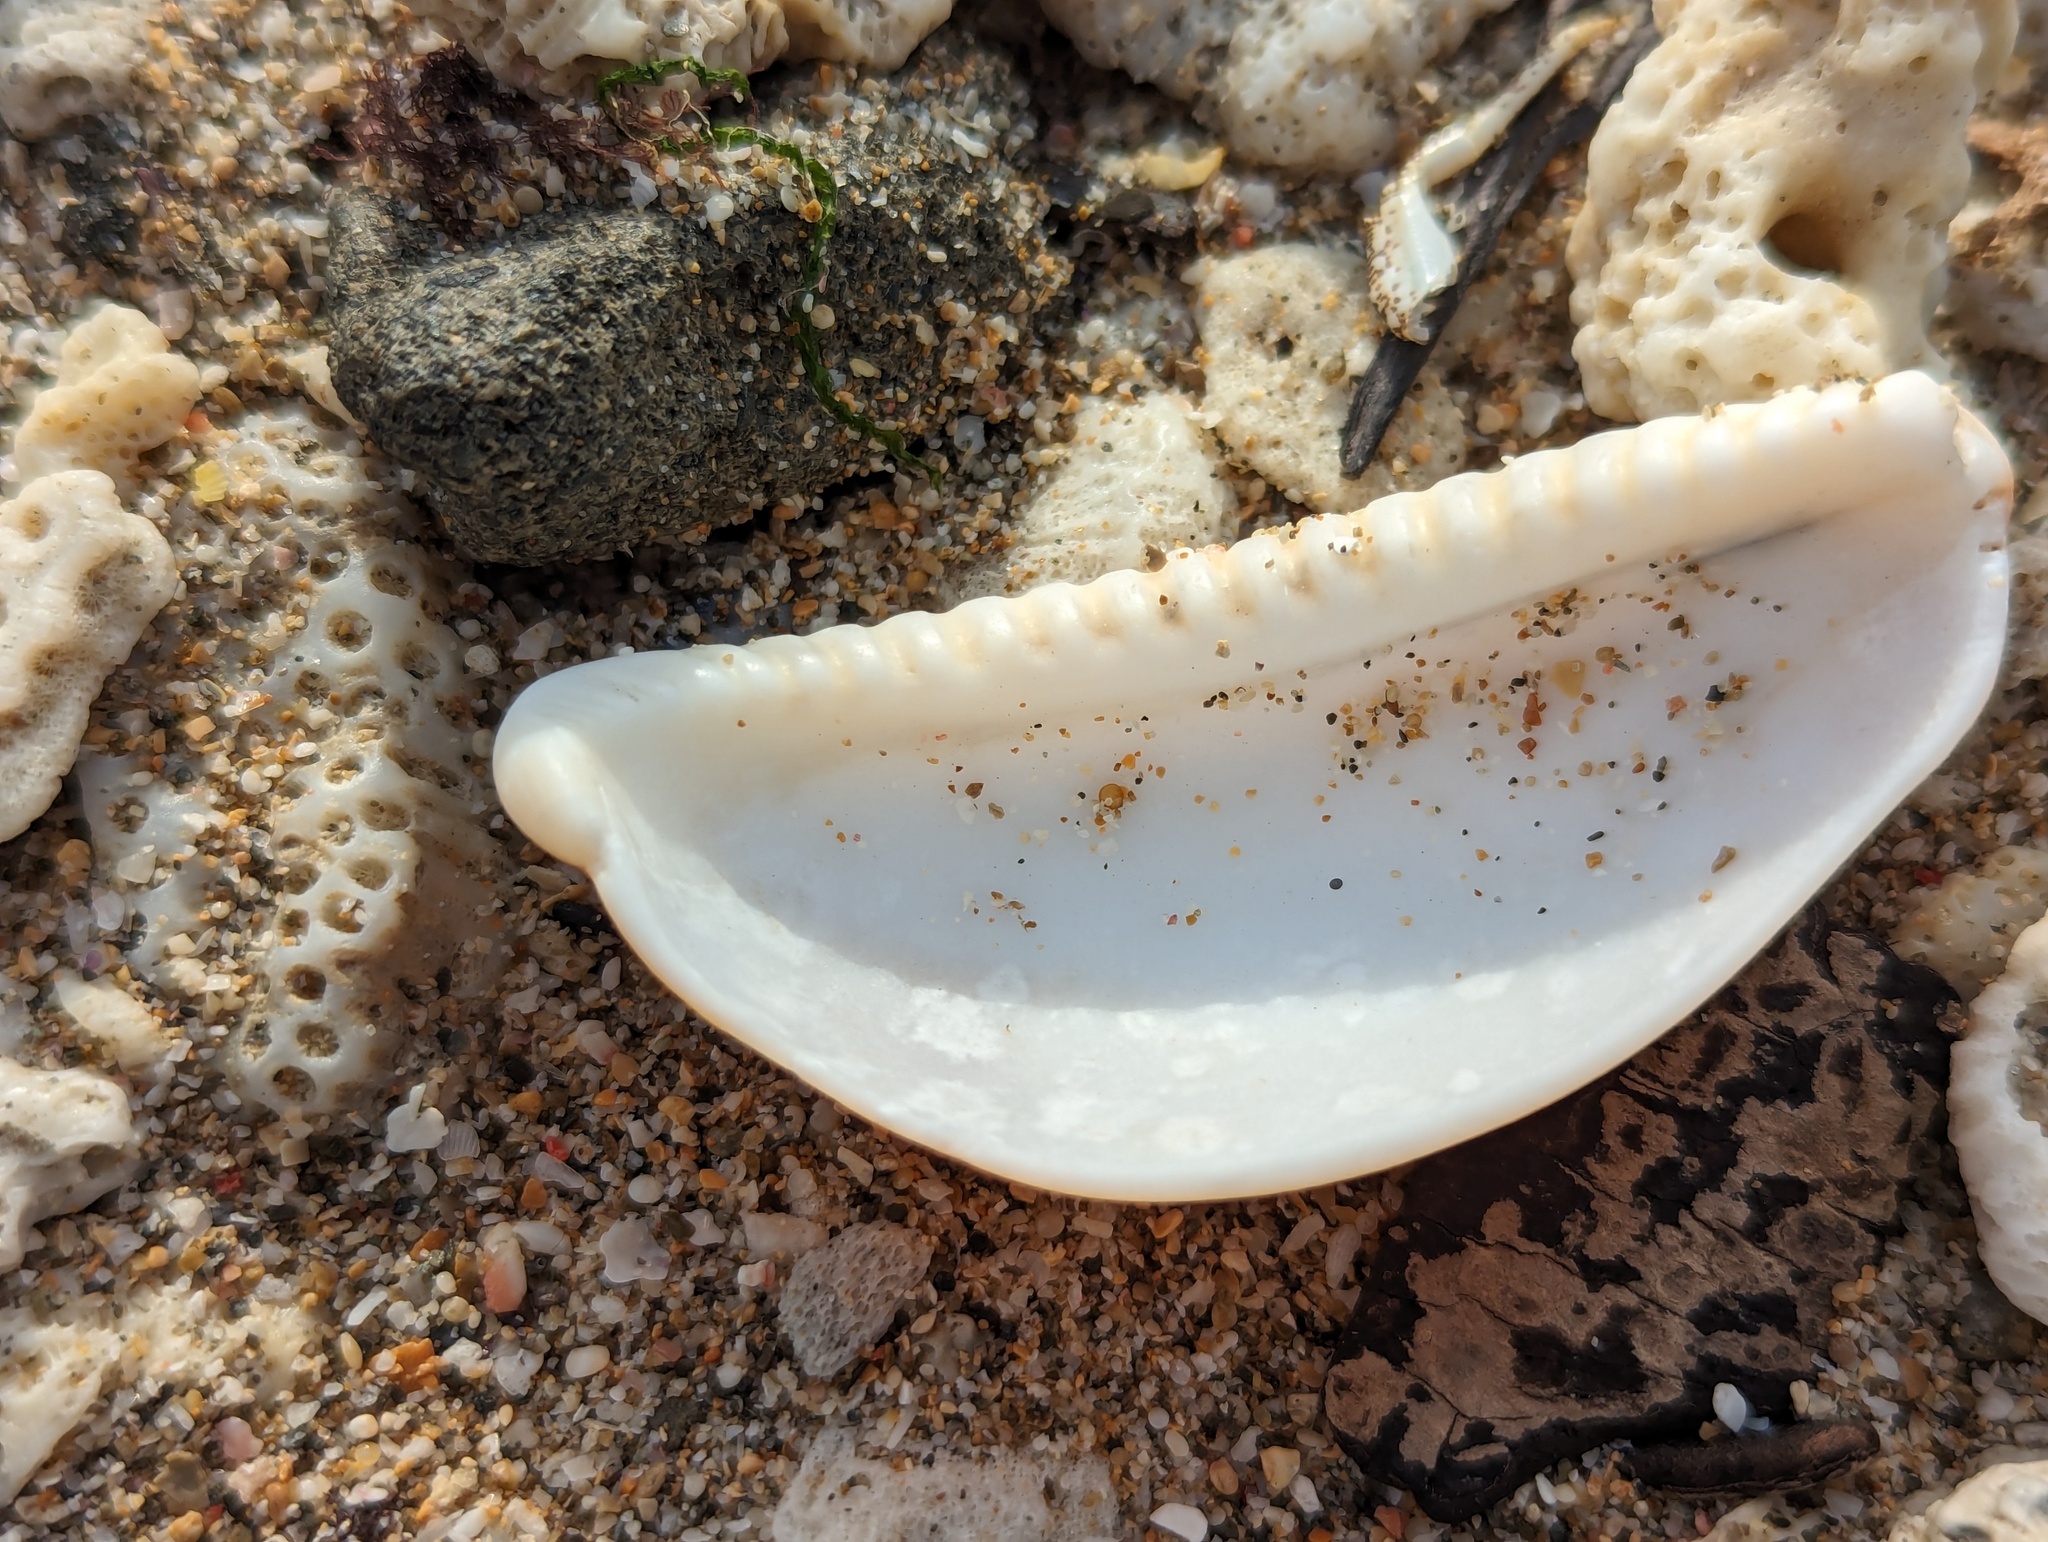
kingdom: Animalia
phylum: Mollusca
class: Gastropoda
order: Littorinimorpha
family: Cypraeidae
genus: Lyncina
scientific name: Lyncina vitellus
